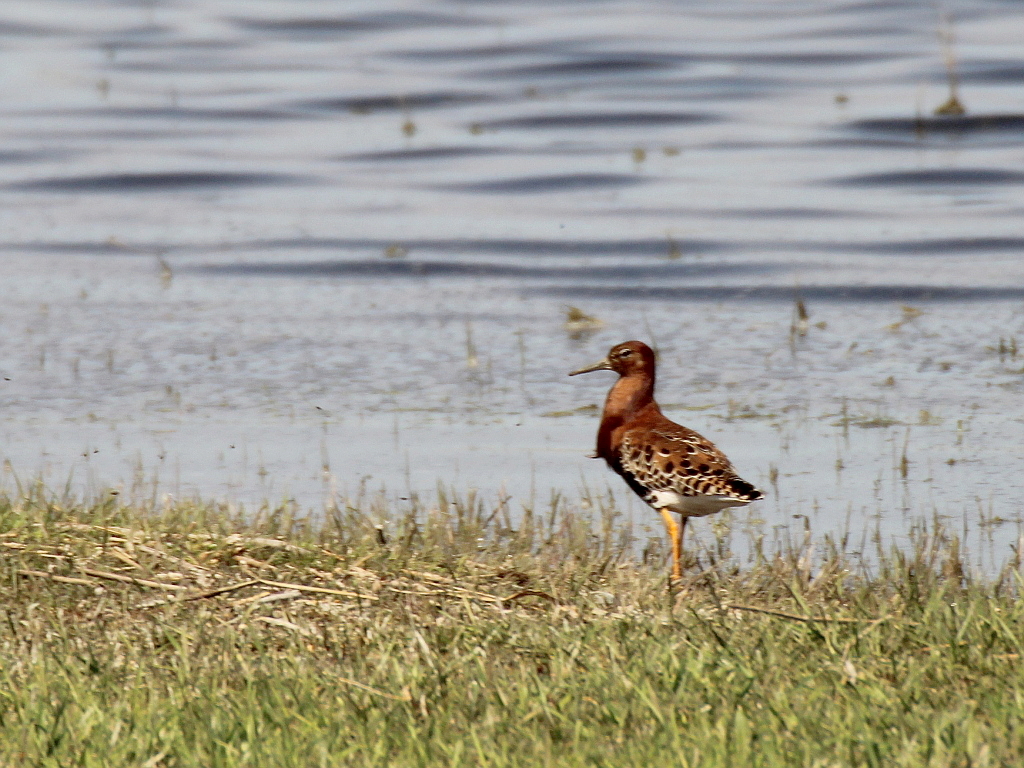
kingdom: Animalia
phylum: Chordata
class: Aves
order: Charadriiformes
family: Scolopacidae
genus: Calidris
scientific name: Calidris pugnax
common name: Ruff
